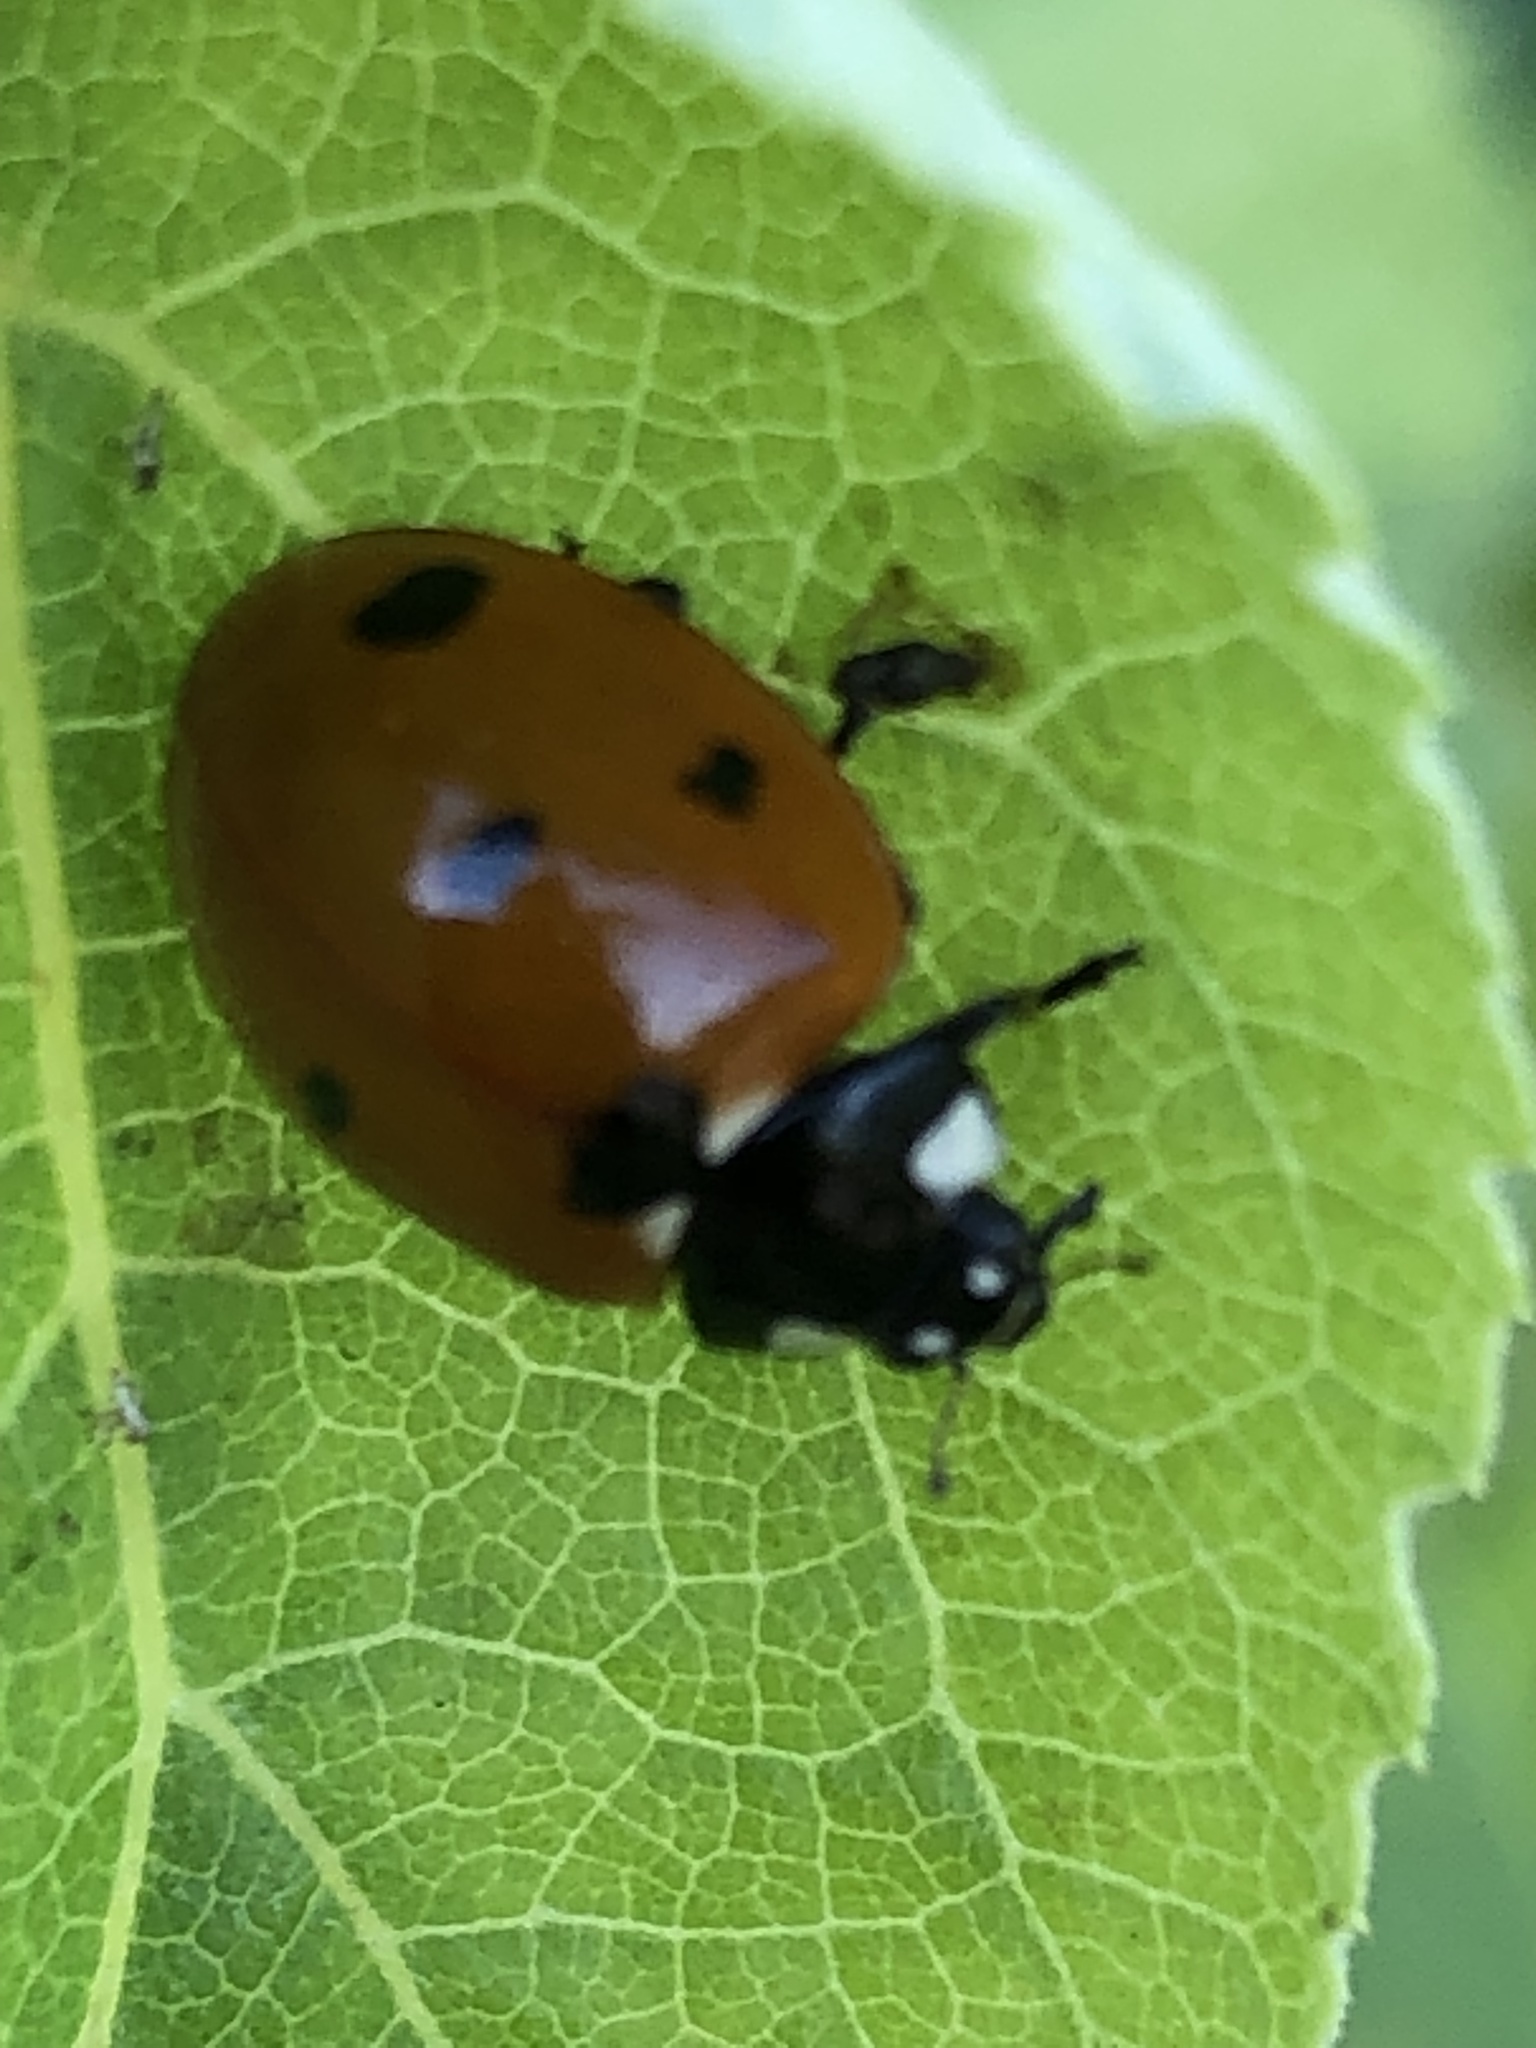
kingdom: Animalia
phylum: Arthropoda
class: Insecta
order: Coleoptera
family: Coccinellidae
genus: Coccinella
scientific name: Coccinella septempunctata
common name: Sevenspotted lady beetle
